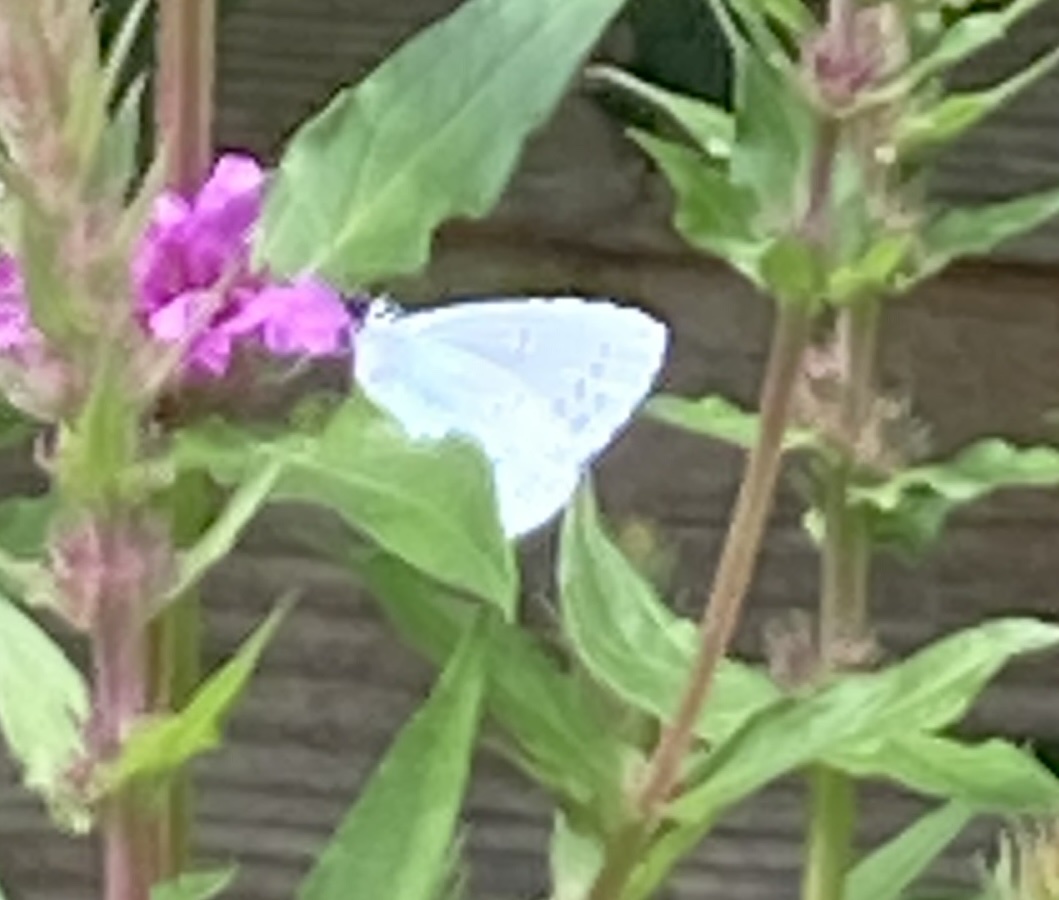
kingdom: Animalia
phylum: Arthropoda
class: Insecta
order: Lepidoptera
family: Lycaenidae
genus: Celastrina
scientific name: Celastrina argiolus
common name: Holly blue
